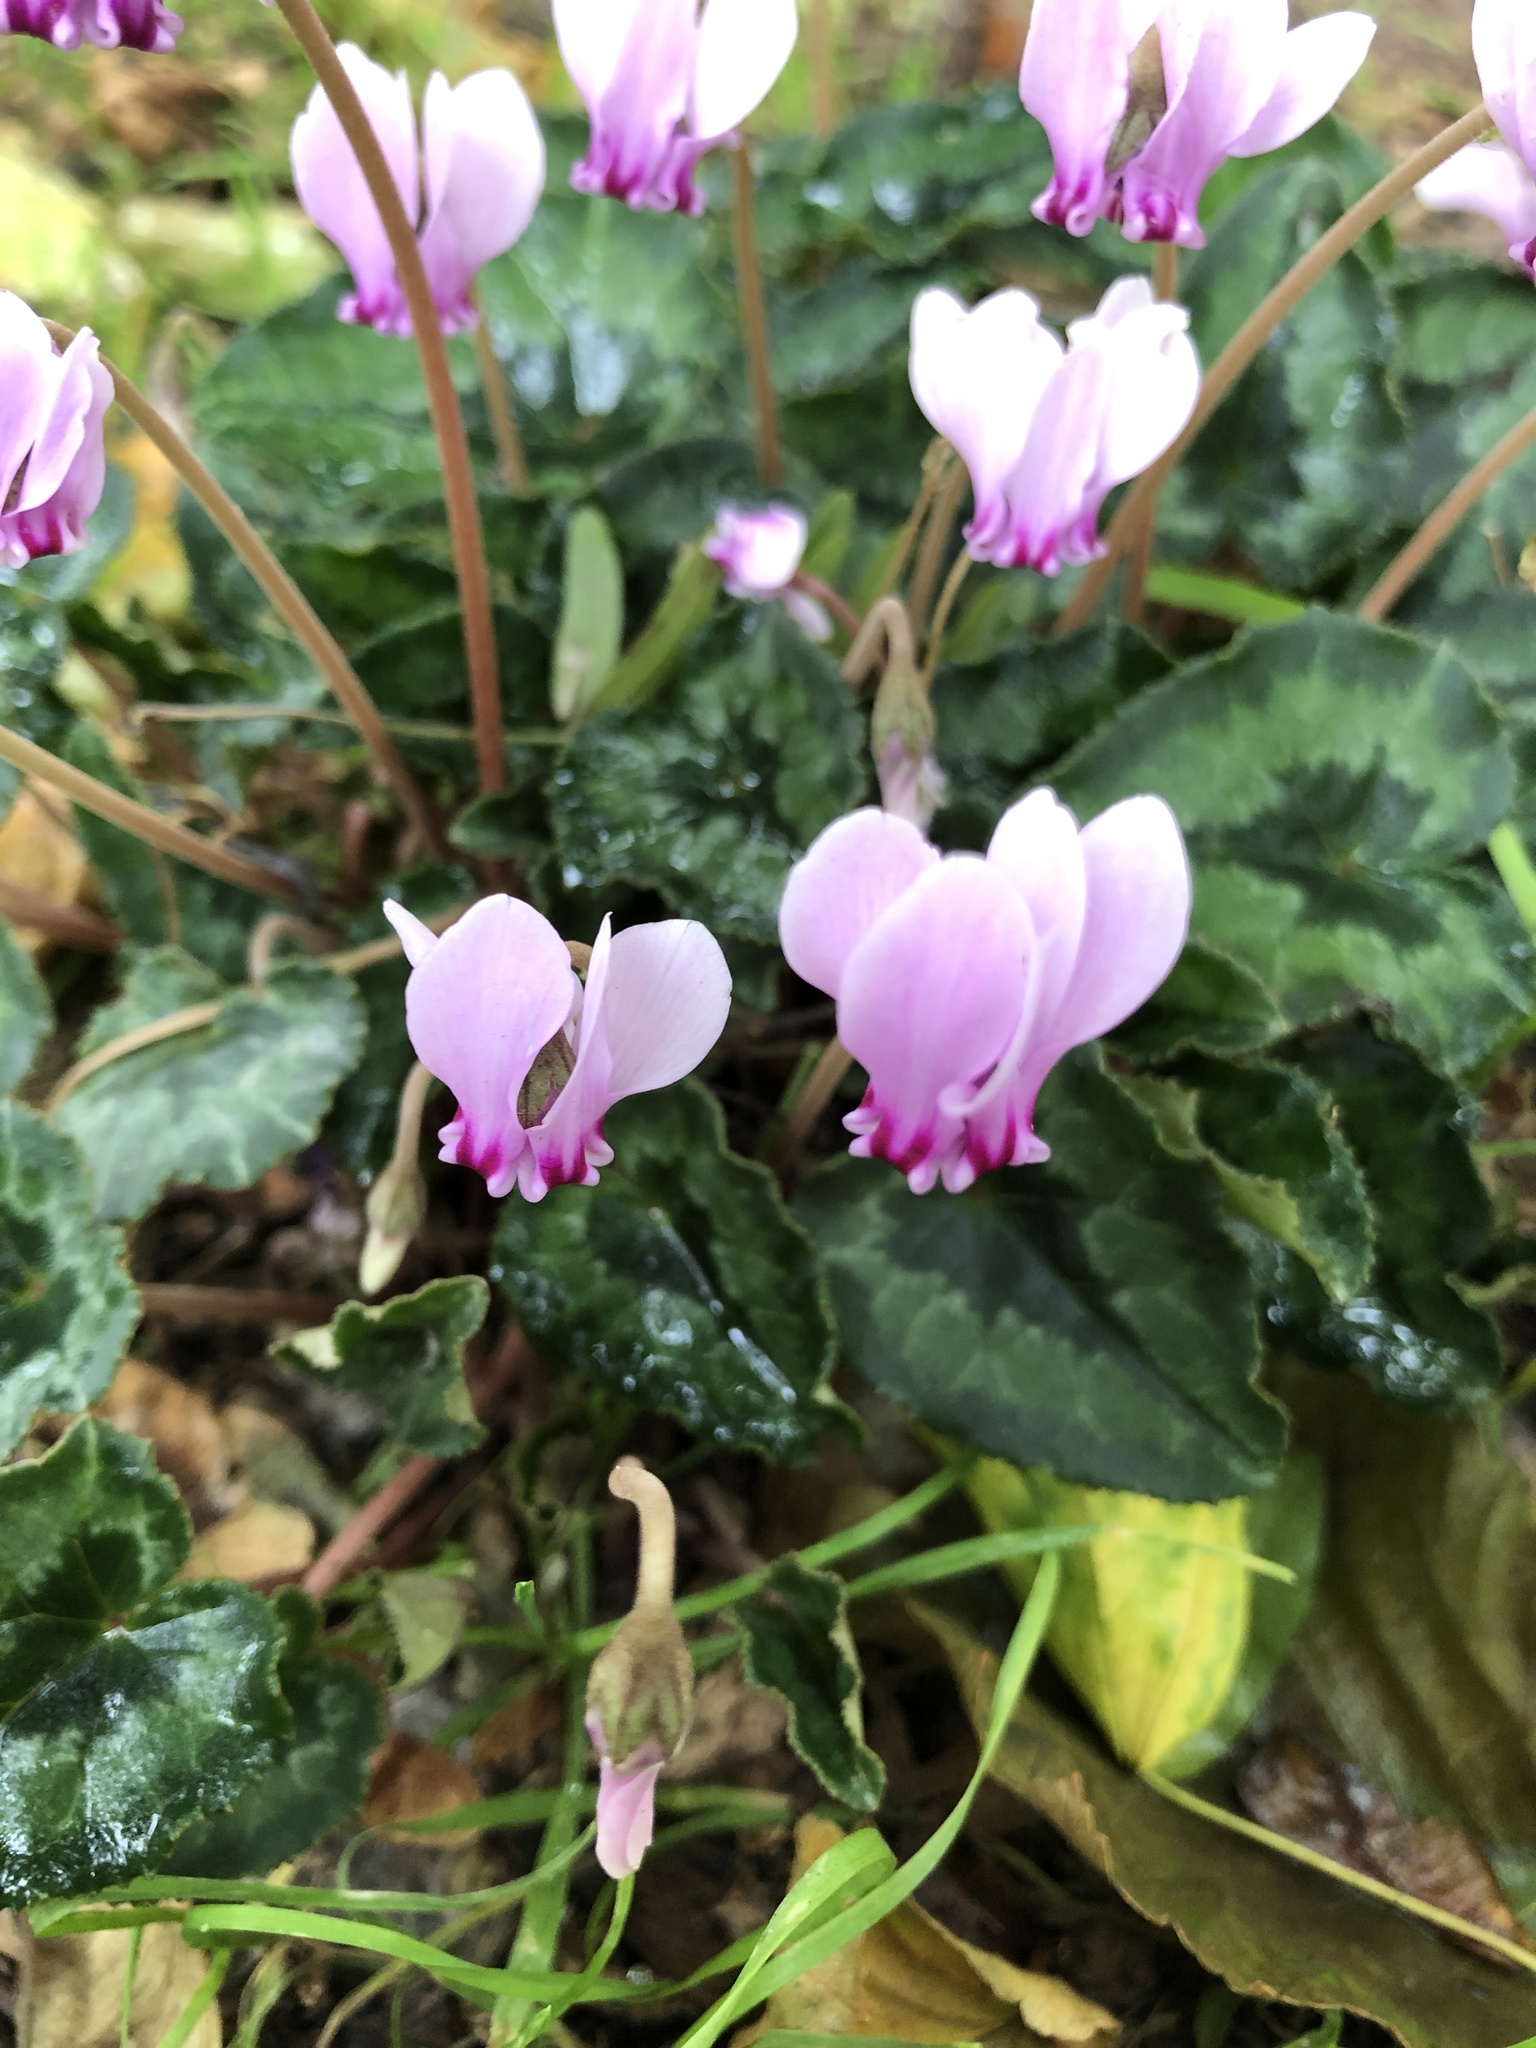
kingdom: Plantae
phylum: Tracheophyta
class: Magnoliopsida
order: Ericales
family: Primulaceae
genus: Cyclamen
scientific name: Cyclamen hederifolium
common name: Sowbread
